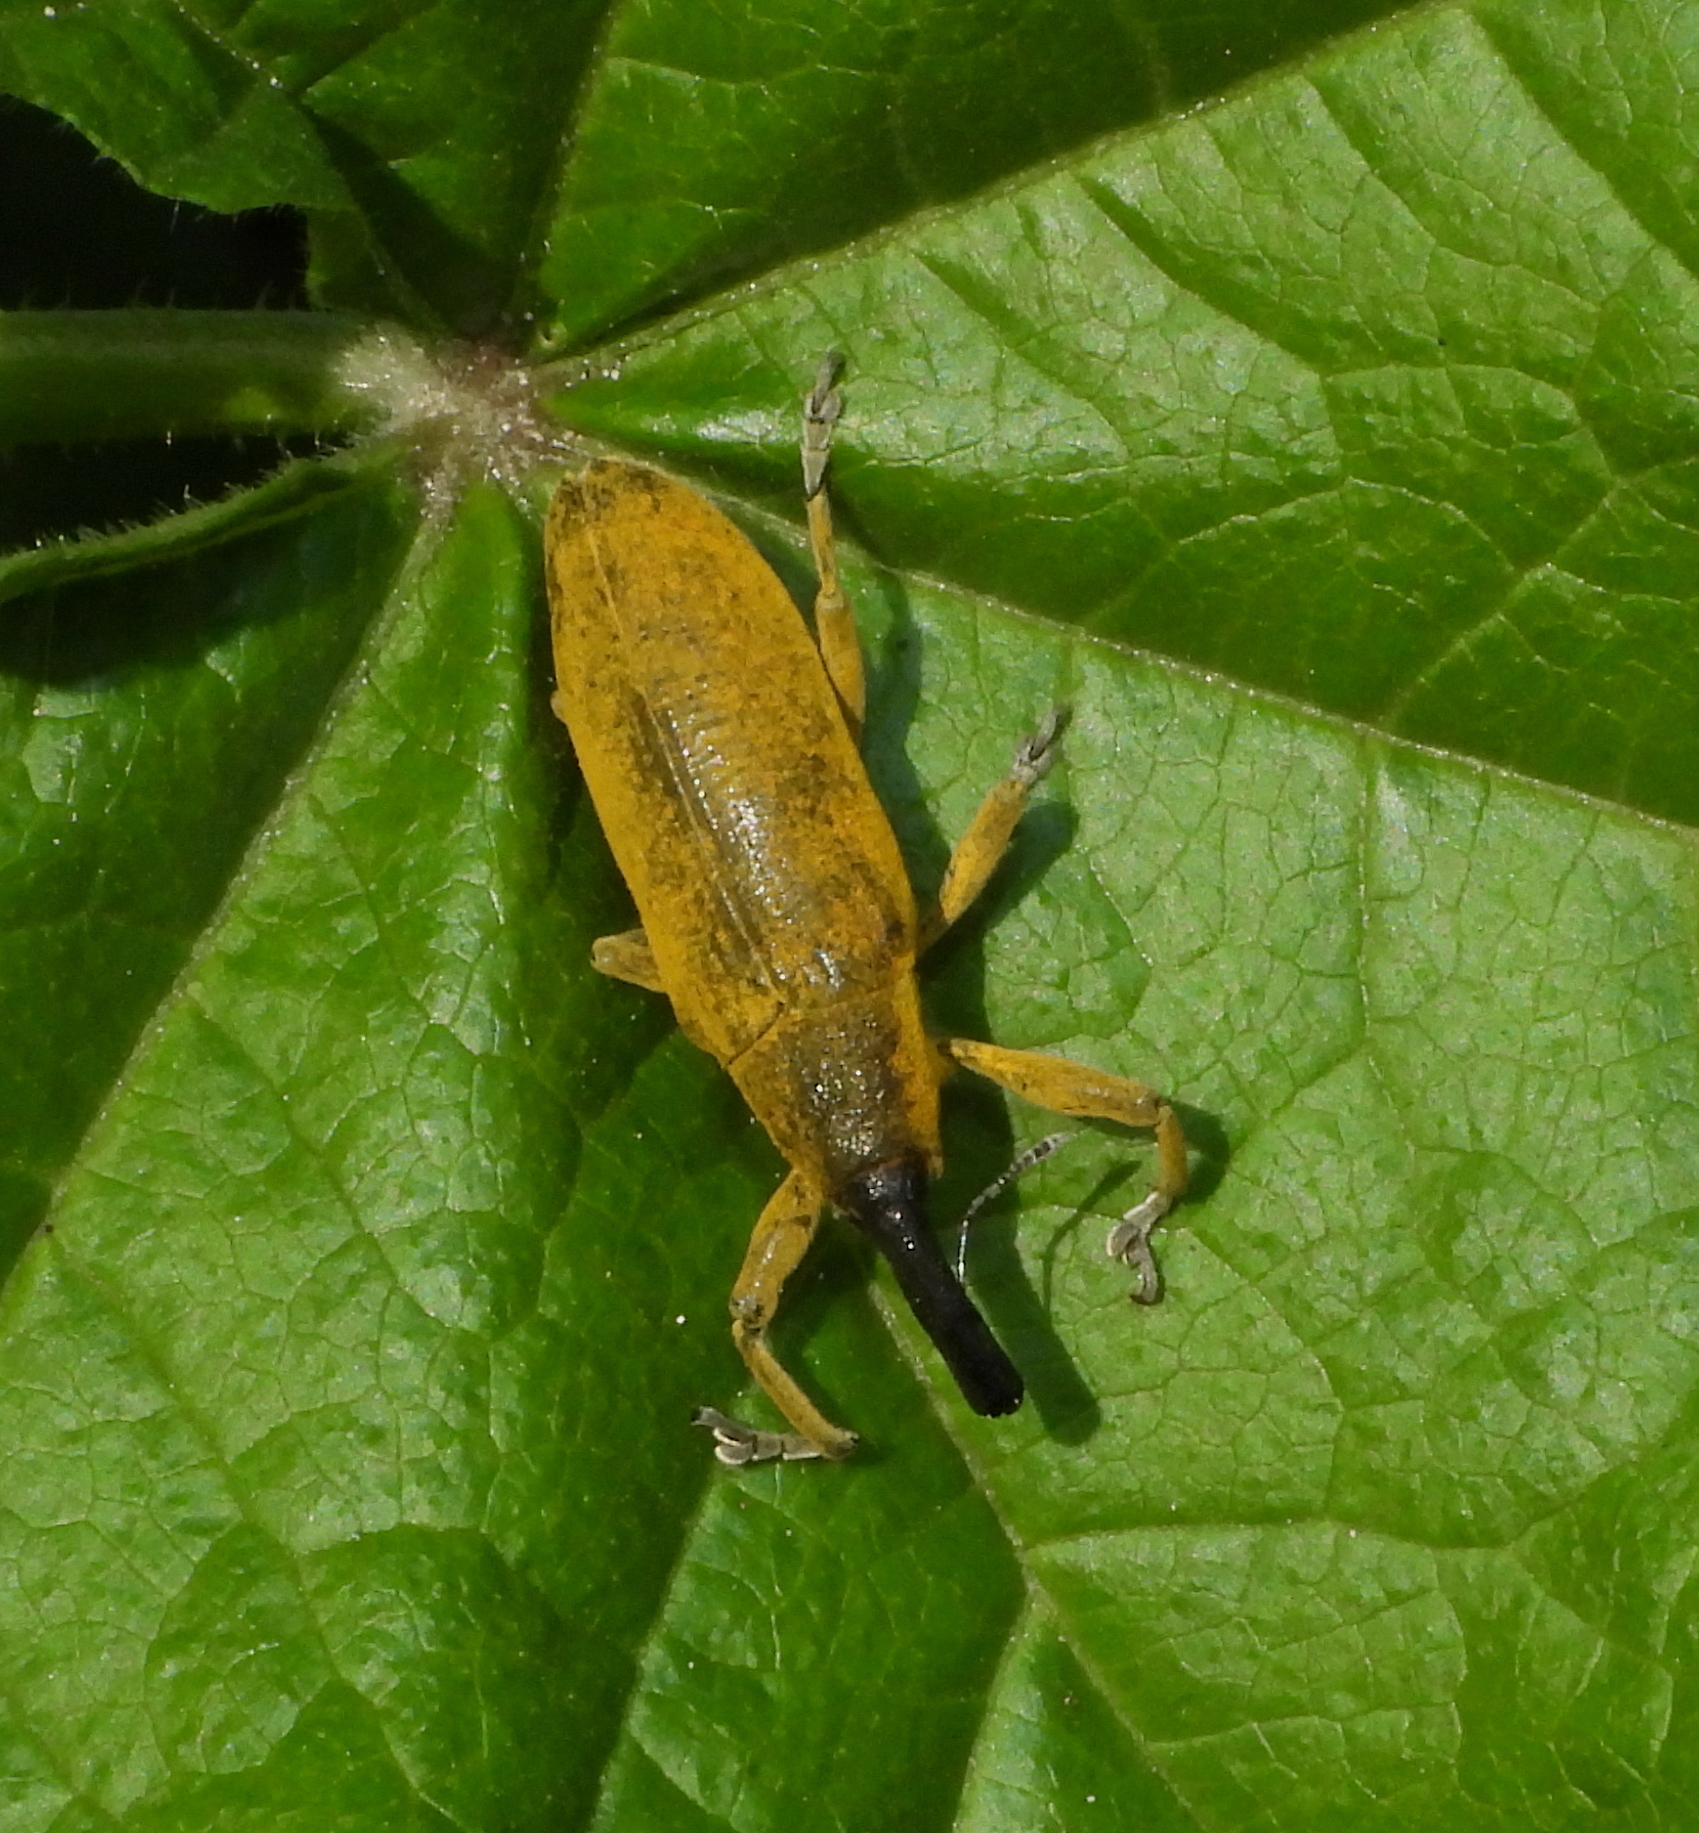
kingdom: Animalia
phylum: Arthropoda
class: Insecta
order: Coleoptera
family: Curculionidae
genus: Lixus
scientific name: Lixus pulverulentus
